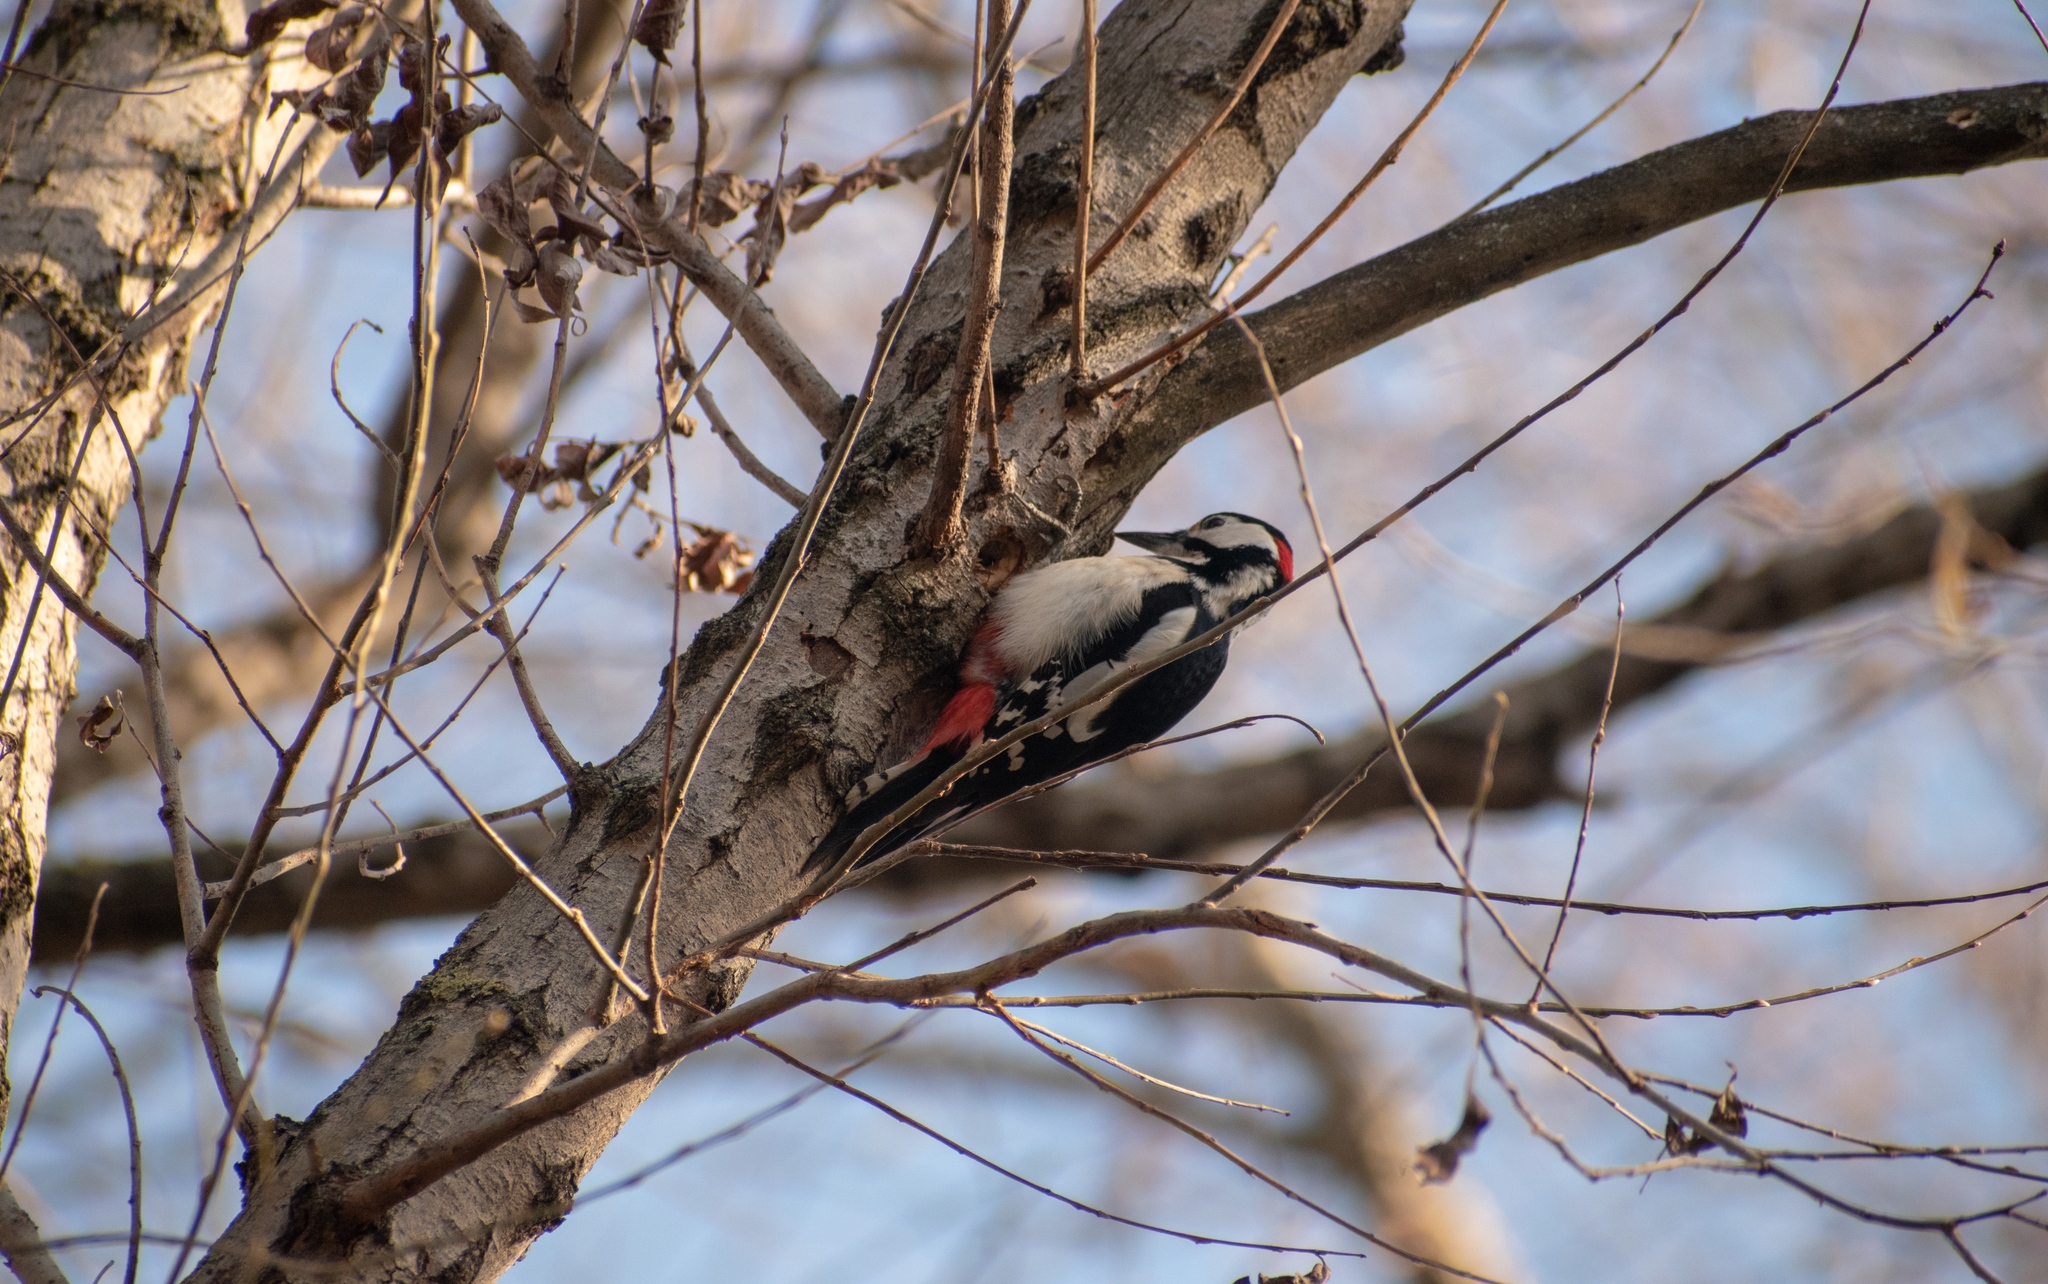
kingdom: Animalia
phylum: Chordata
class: Aves
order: Piciformes
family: Picidae
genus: Dendrocopos
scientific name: Dendrocopos major
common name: Great spotted woodpecker
